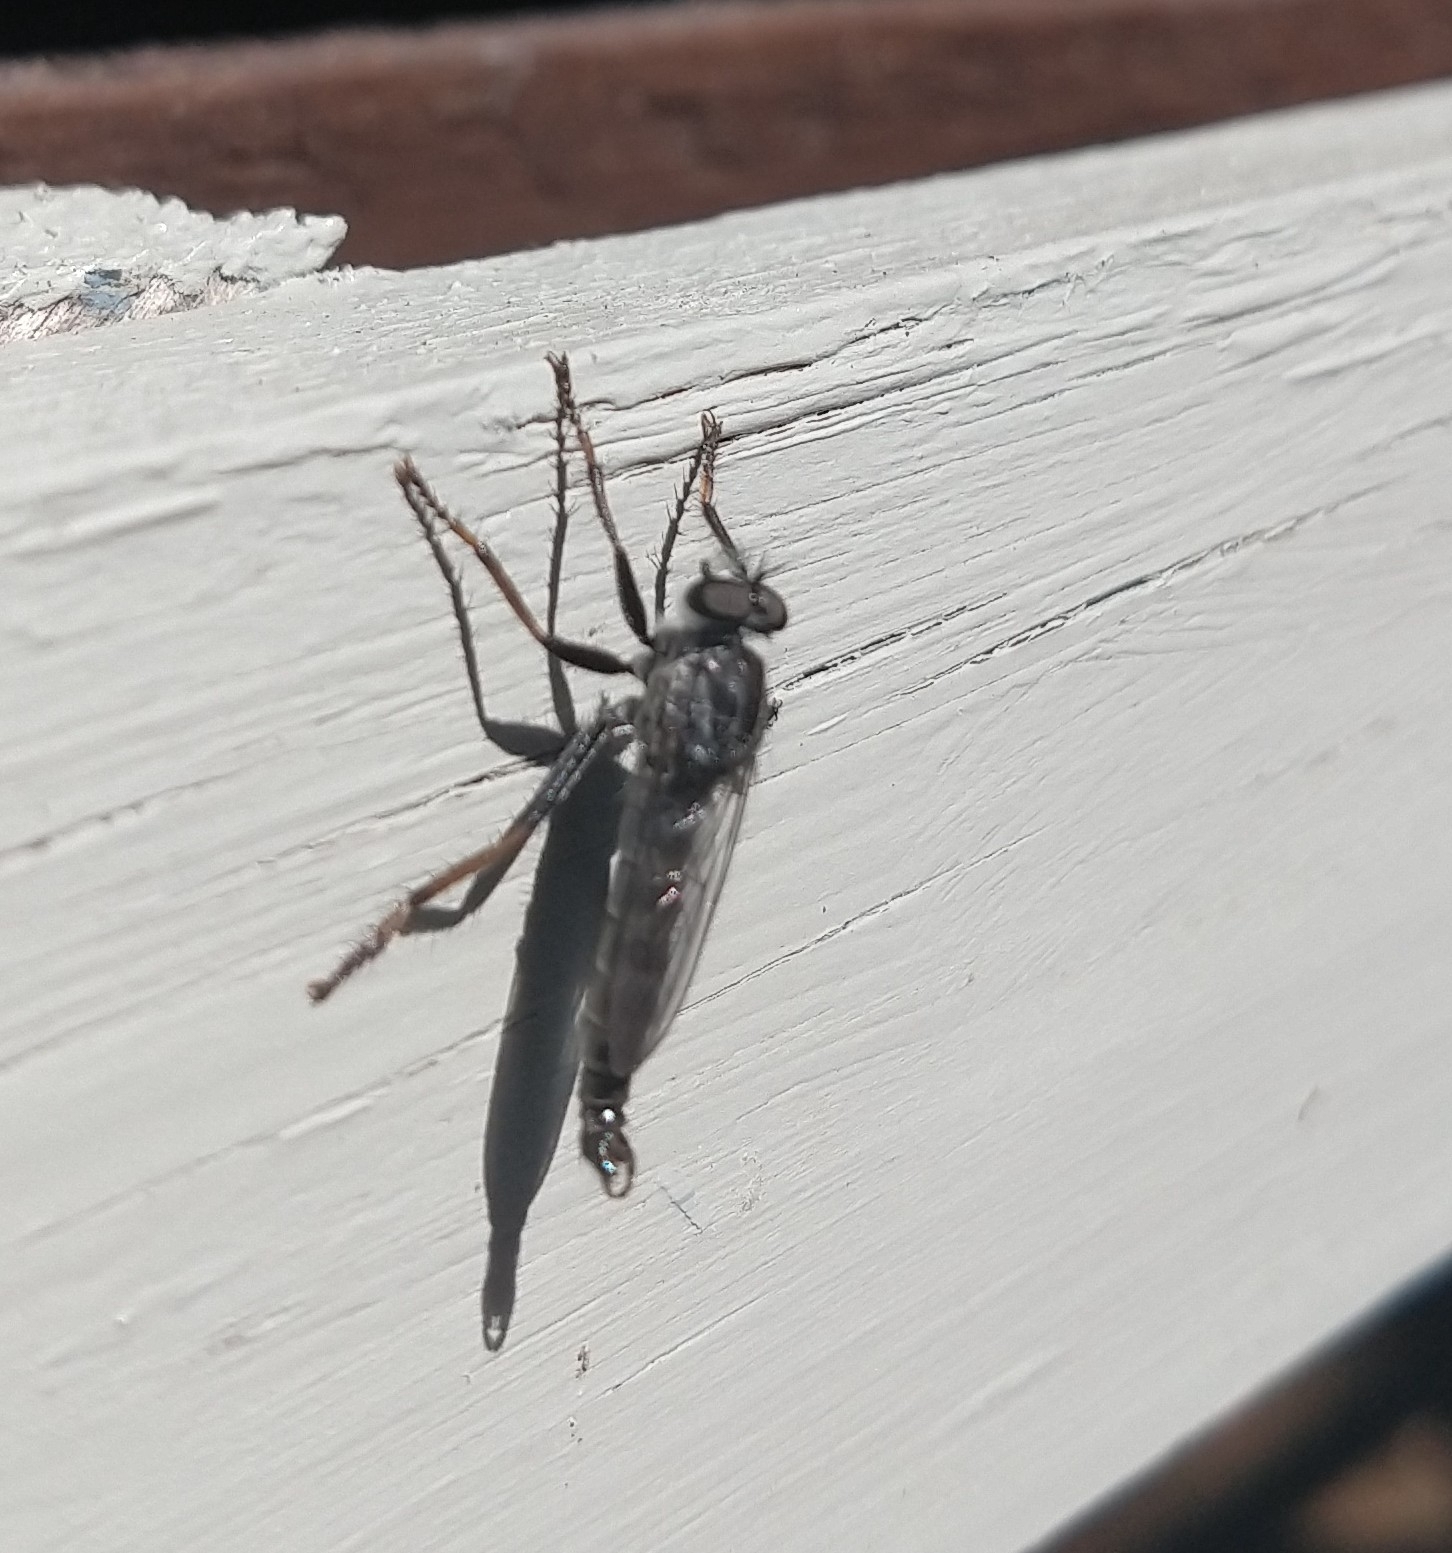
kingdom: Animalia
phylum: Arthropoda
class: Insecta
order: Diptera
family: Asilidae
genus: Rhadiurgus
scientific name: Rhadiurgus variabilis
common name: Northern robberfly
